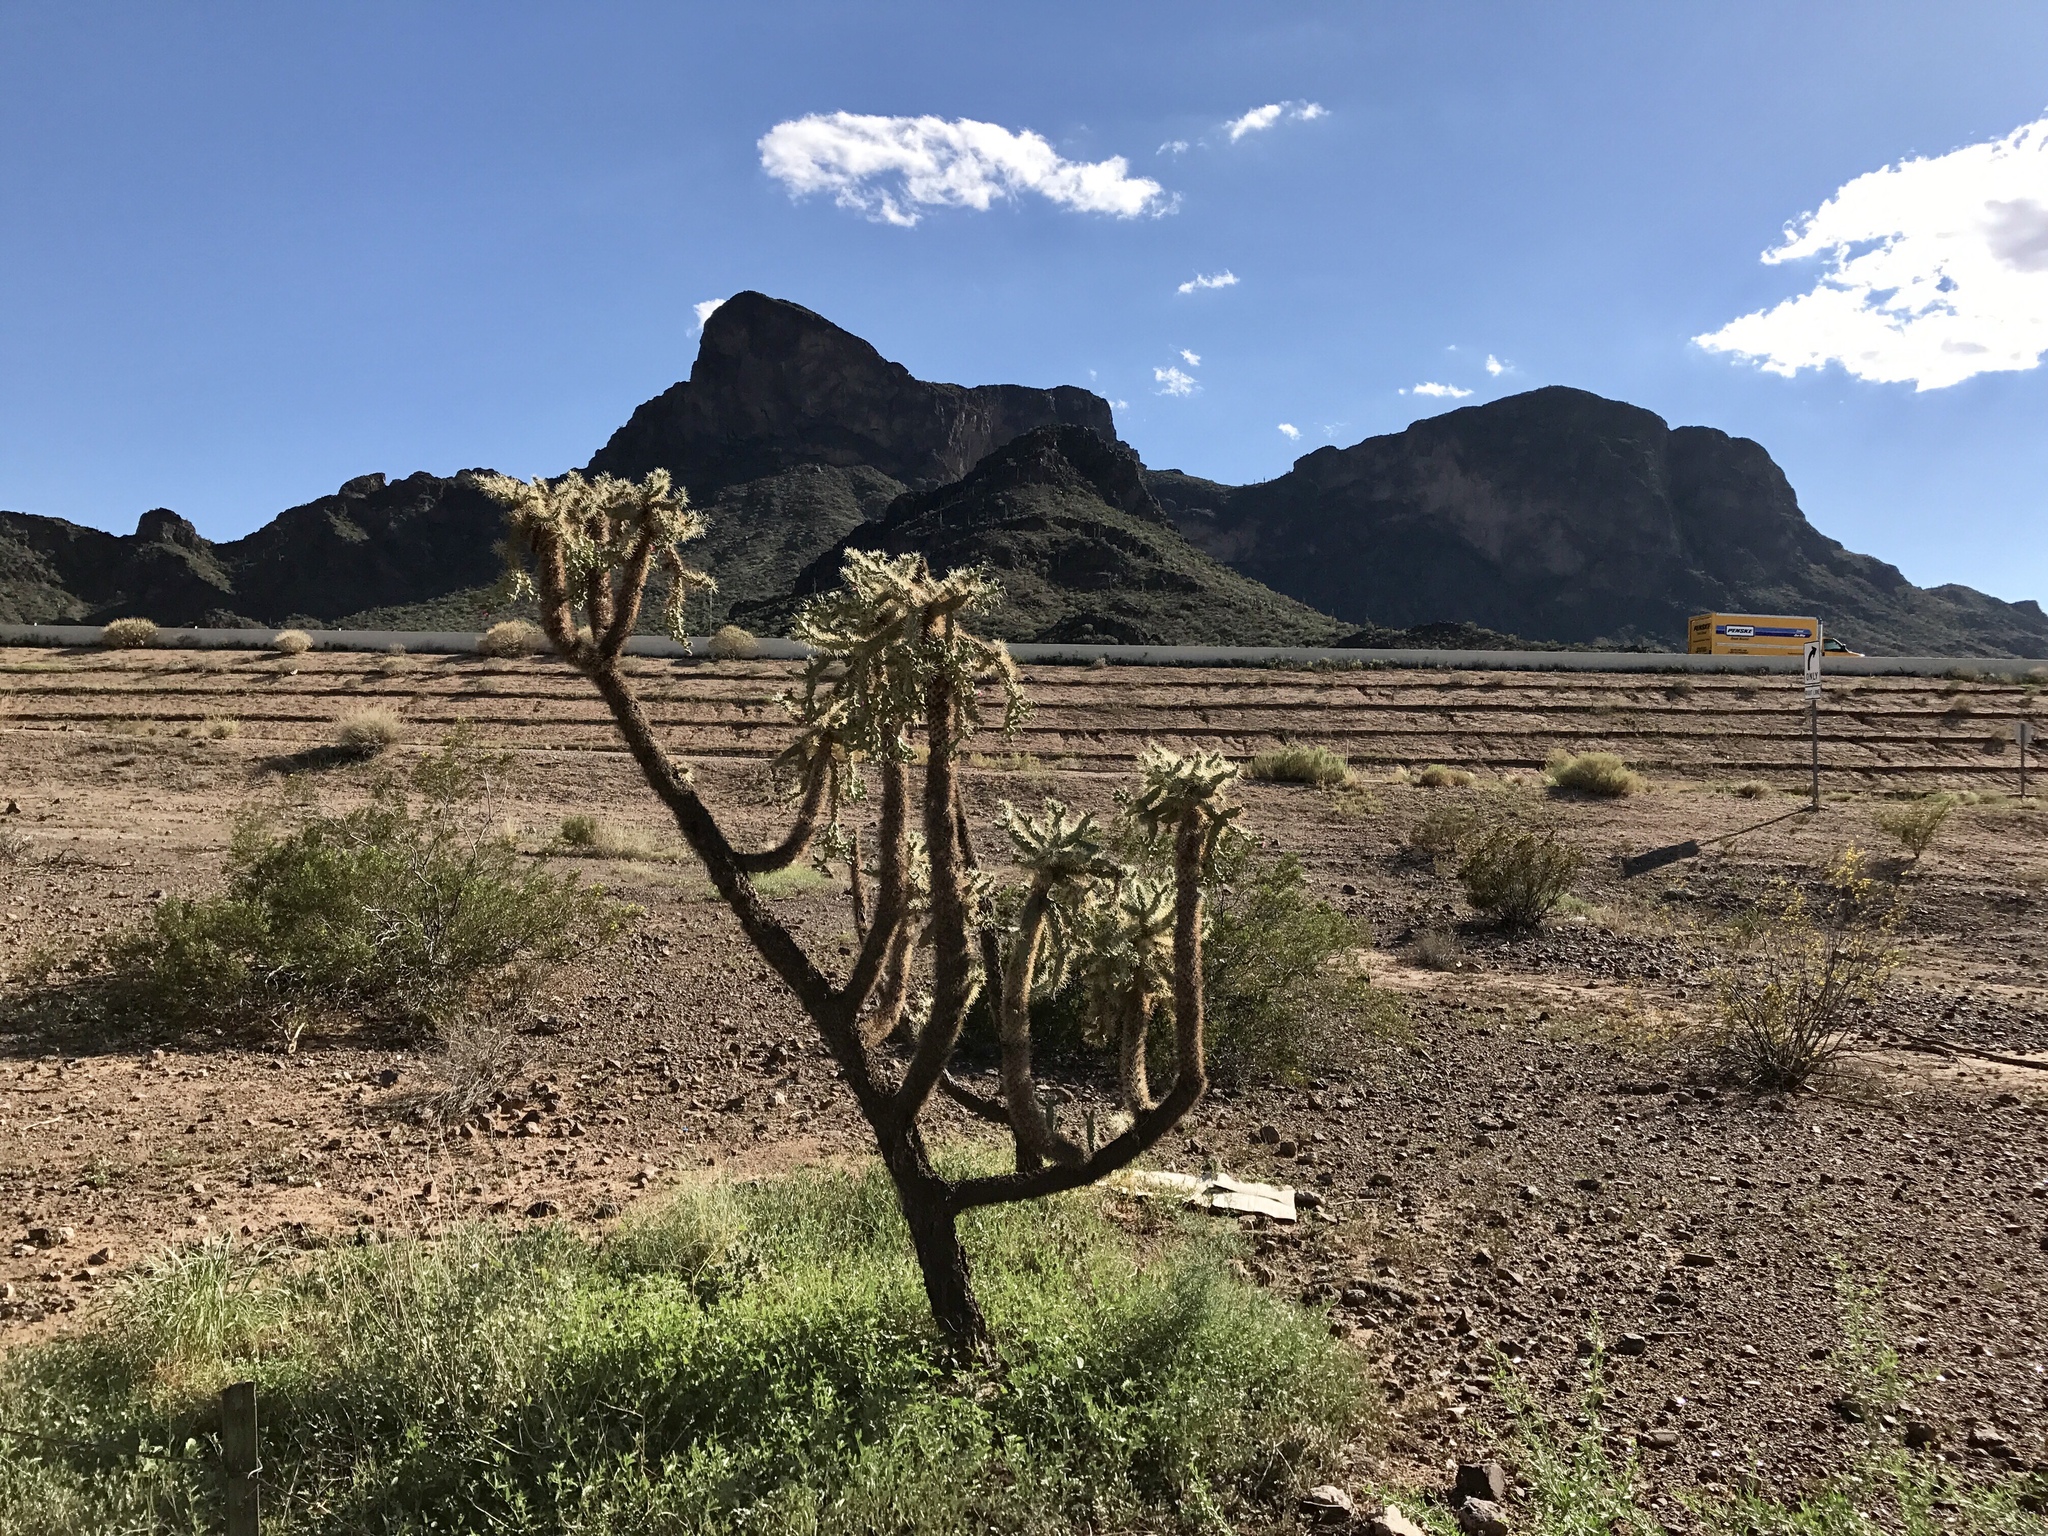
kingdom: Plantae
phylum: Tracheophyta
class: Magnoliopsida
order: Caryophyllales
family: Cactaceae
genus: Cylindropuntia
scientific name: Cylindropuntia fulgida
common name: Jumping cholla
